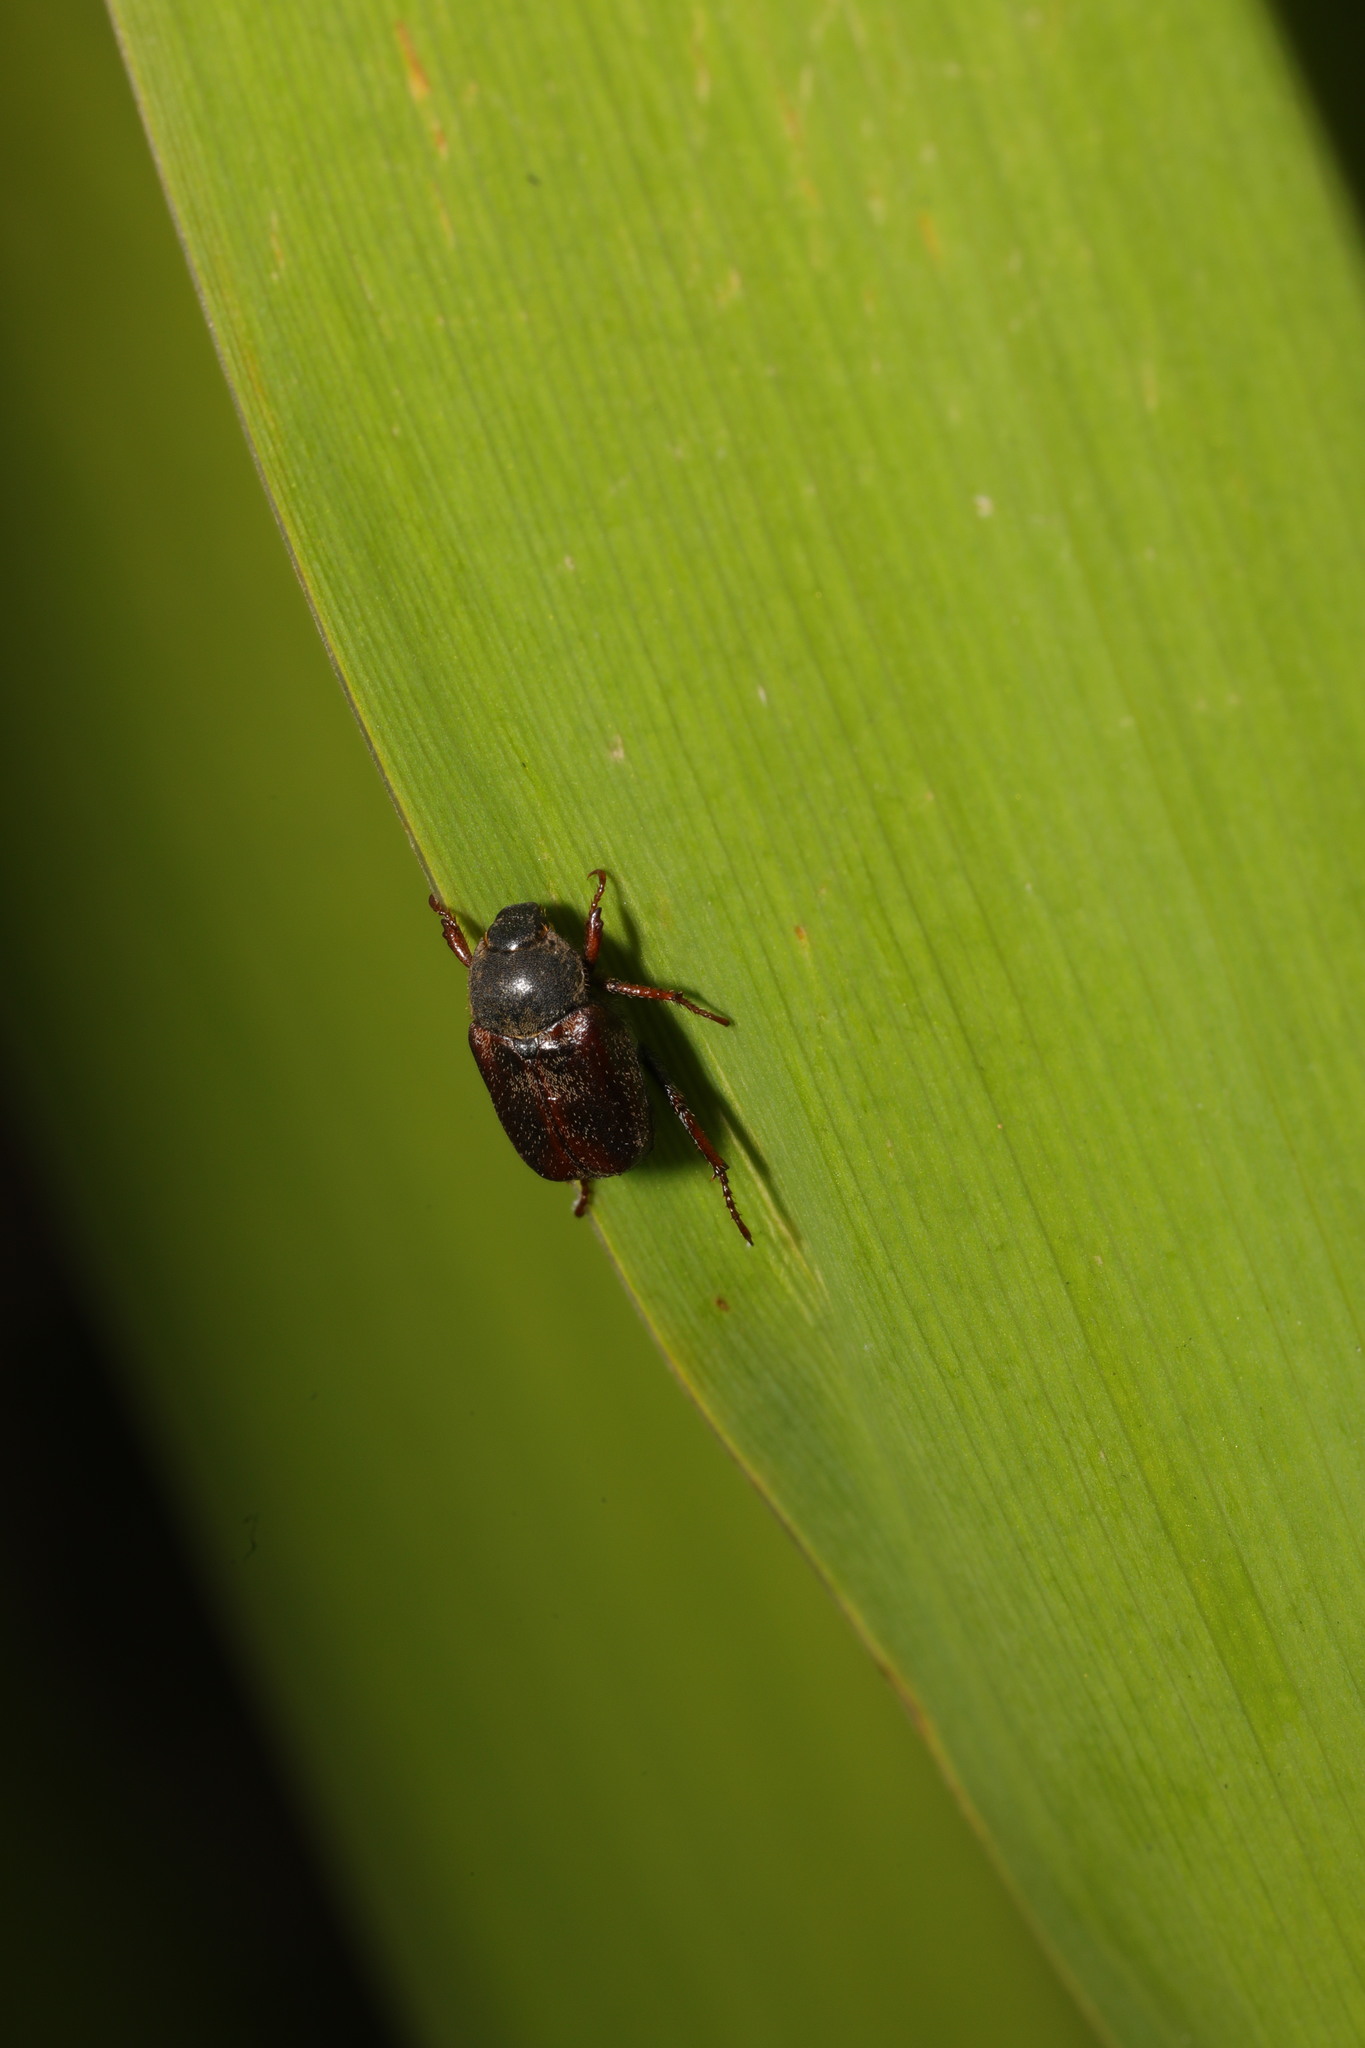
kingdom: Animalia
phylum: Arthropoda
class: Insecta
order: Coleoptera
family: Scarabaeidae
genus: Hoplia
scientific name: Hoplia philanthus
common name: Welsh chafer
